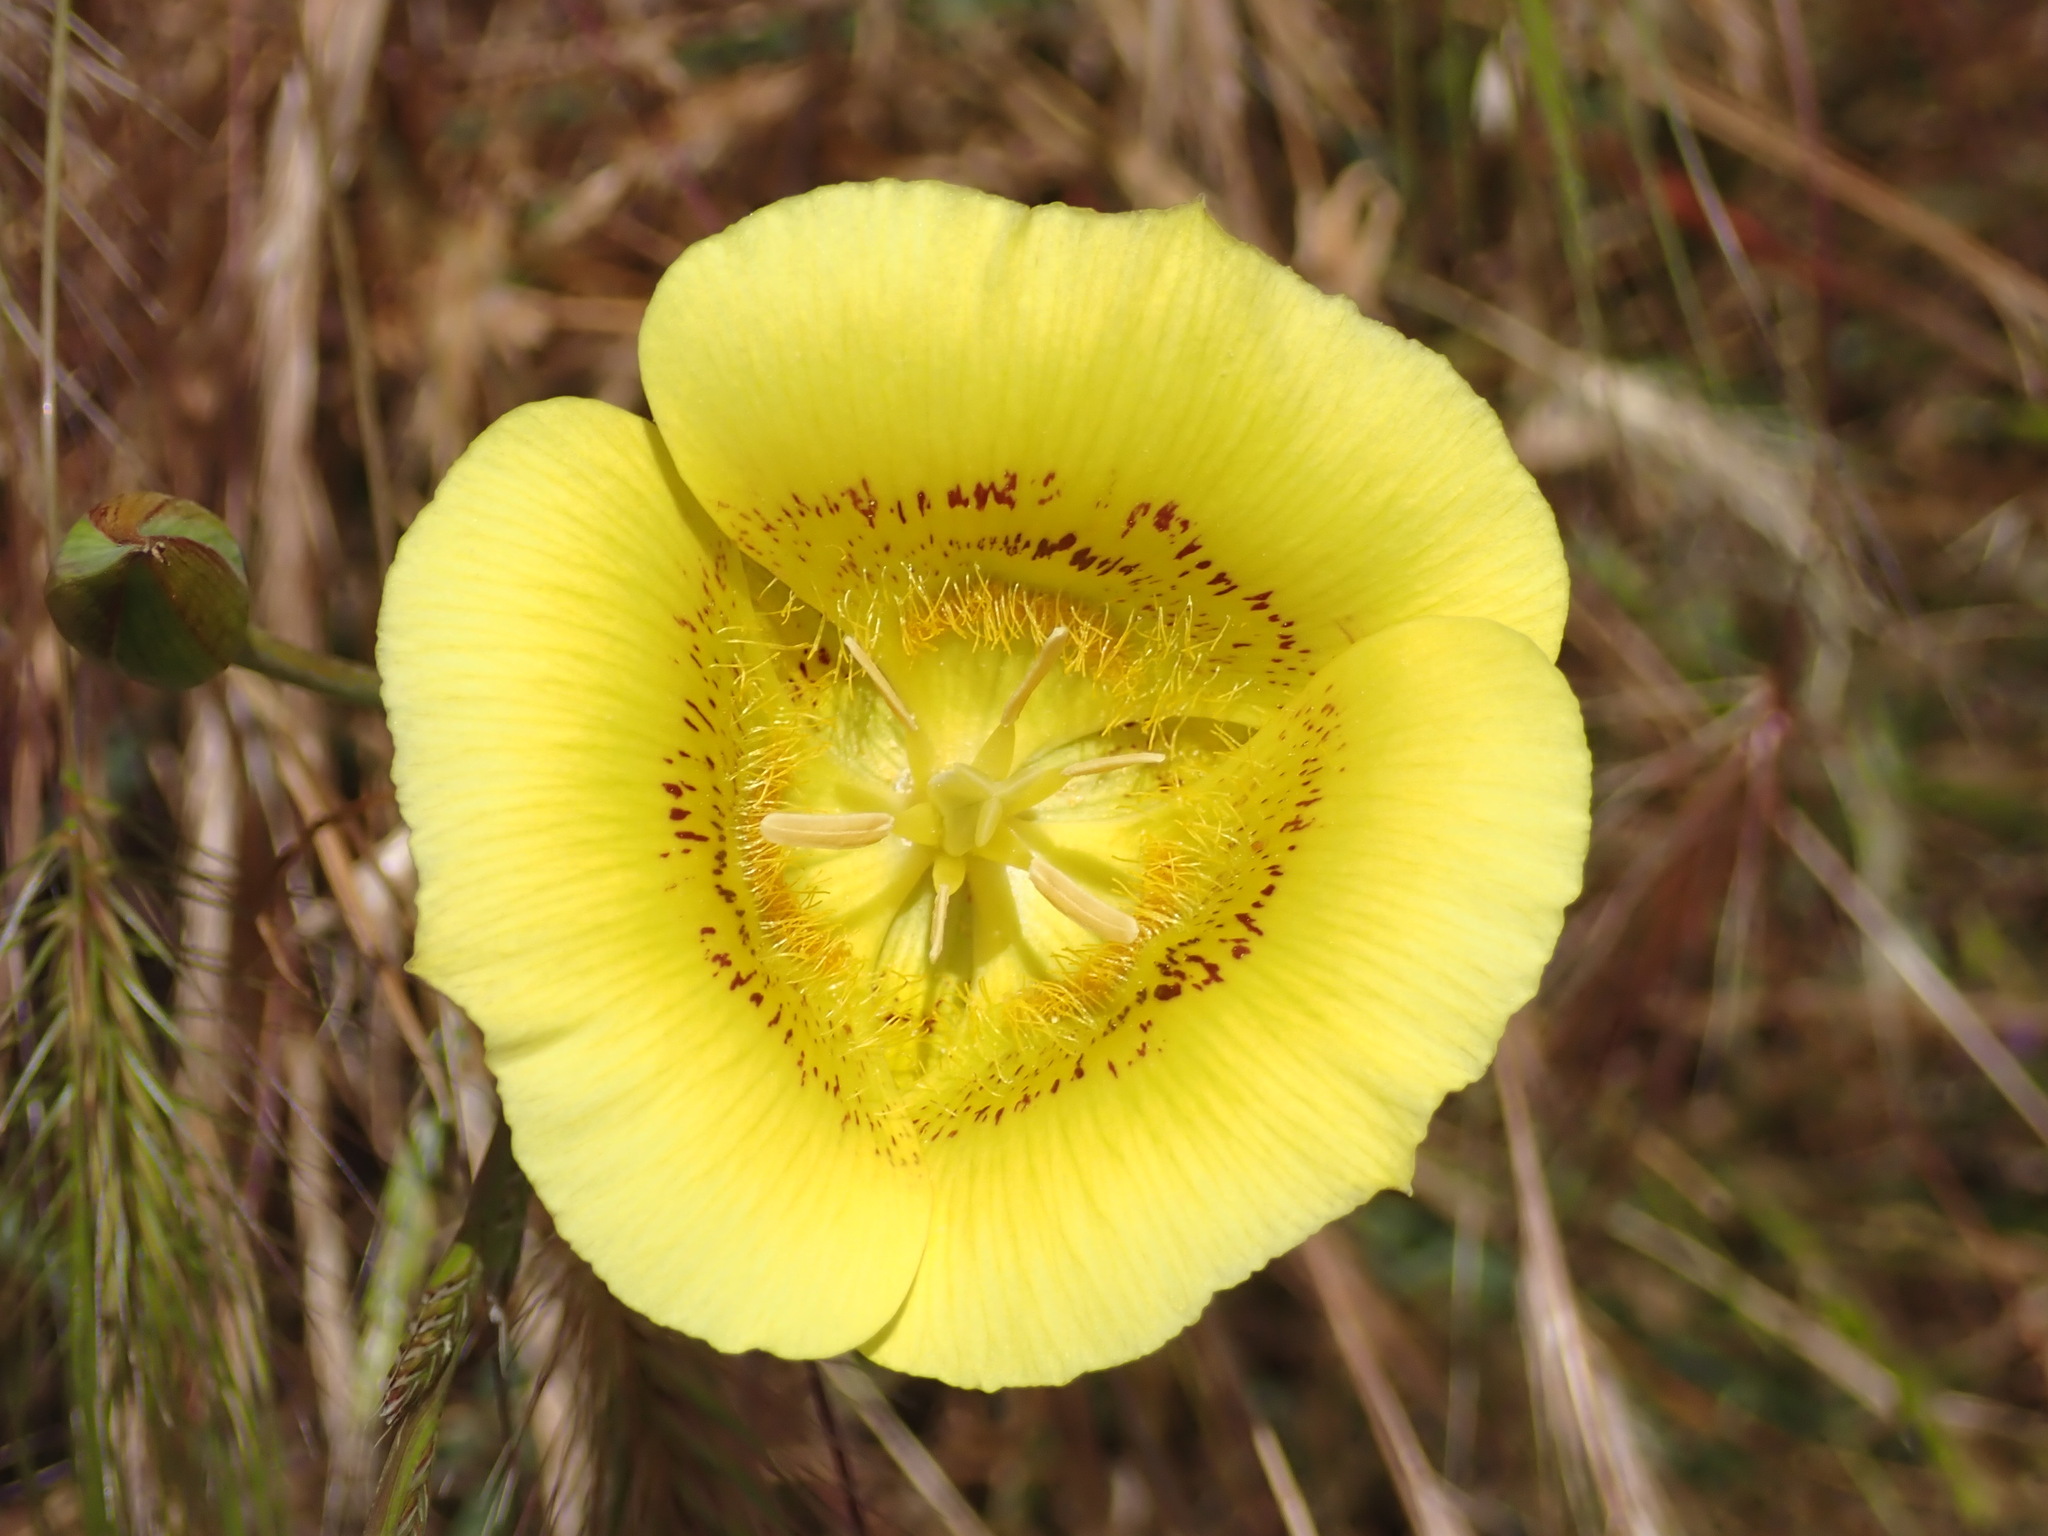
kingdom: Plantae
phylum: Tracheophyta
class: Liliopsida
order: Liliales
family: Liliaceae
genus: Calochortus
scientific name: Calochortus luteus
